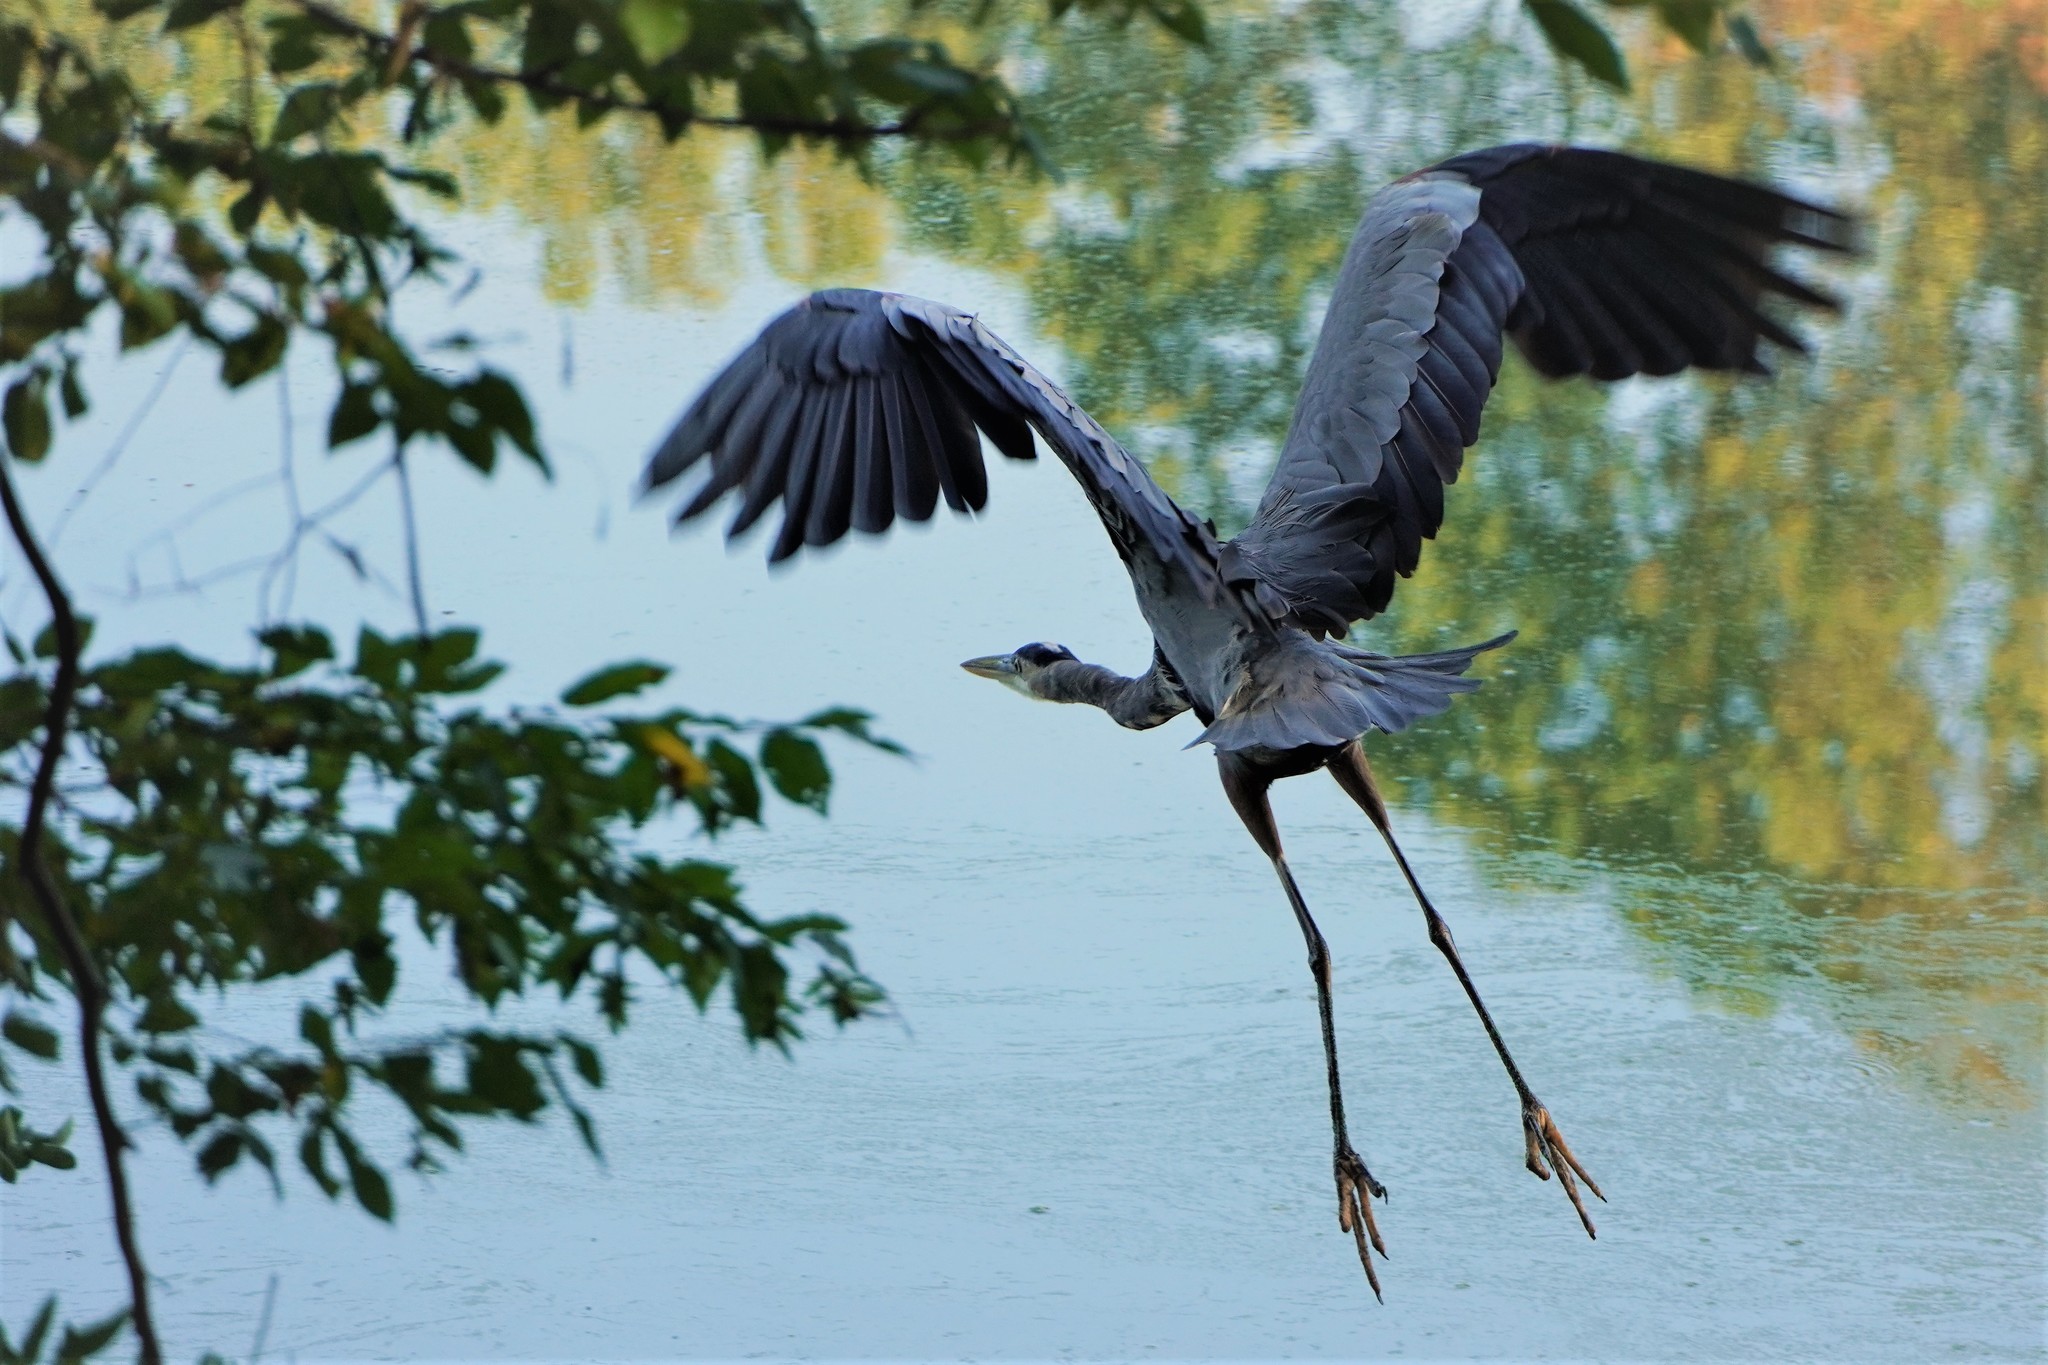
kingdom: Animalia
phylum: Chordata
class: Aves
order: Pelecaniformes
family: Ardeidae
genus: Ardea
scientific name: Ardea herodias
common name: Great blue heron
